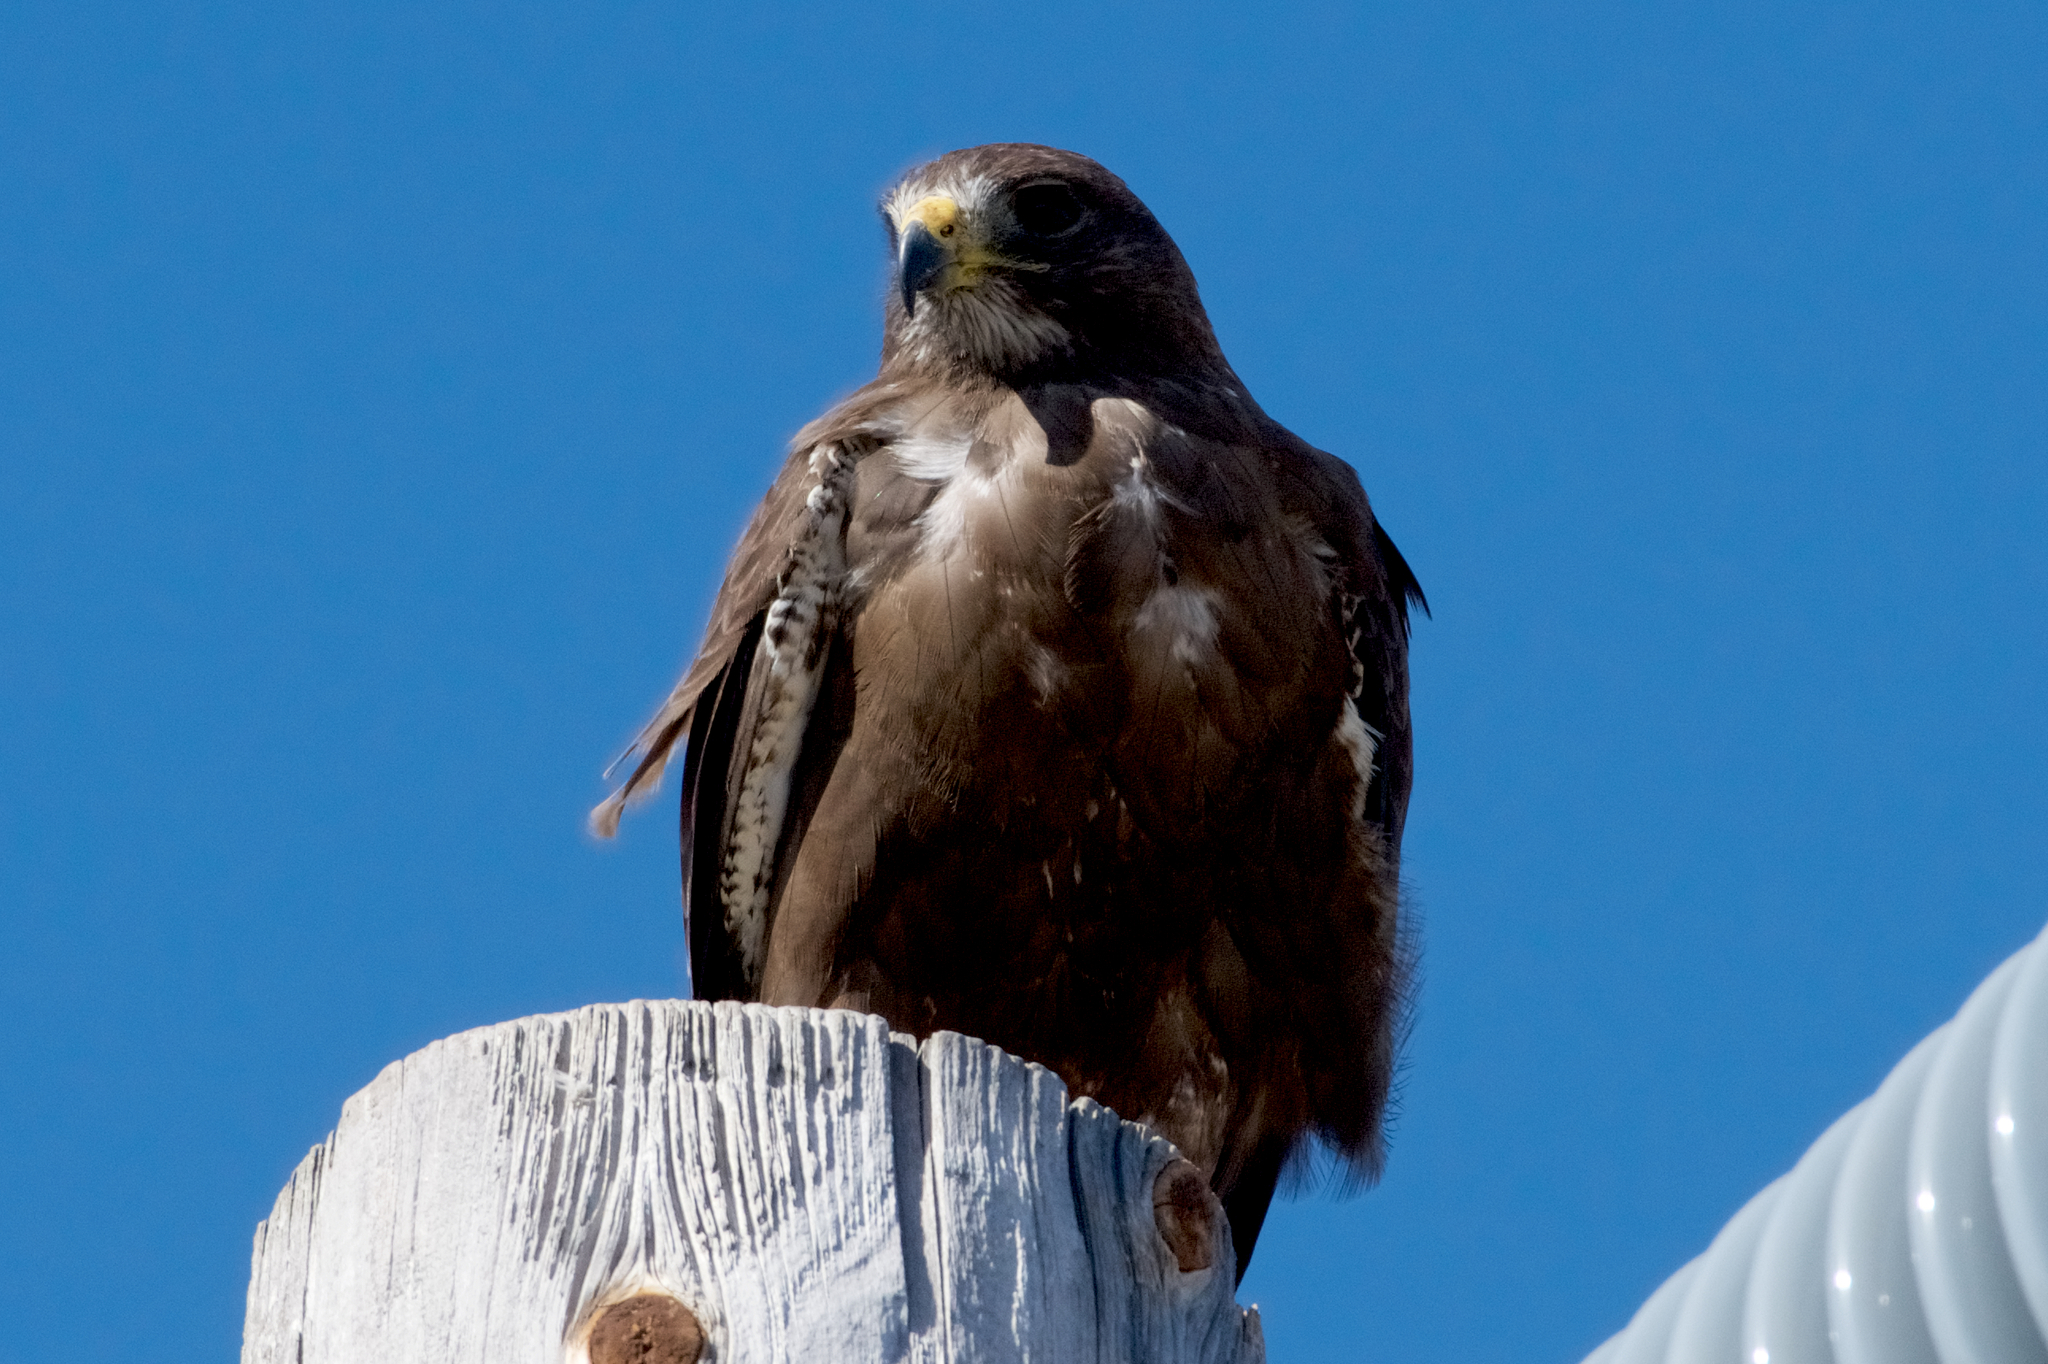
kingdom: Animalia
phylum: Chordata
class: Aves
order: Accipitriformes
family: Accipitridae
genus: Buteo
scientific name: Buteo swainsoni
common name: Swainson's hawk
